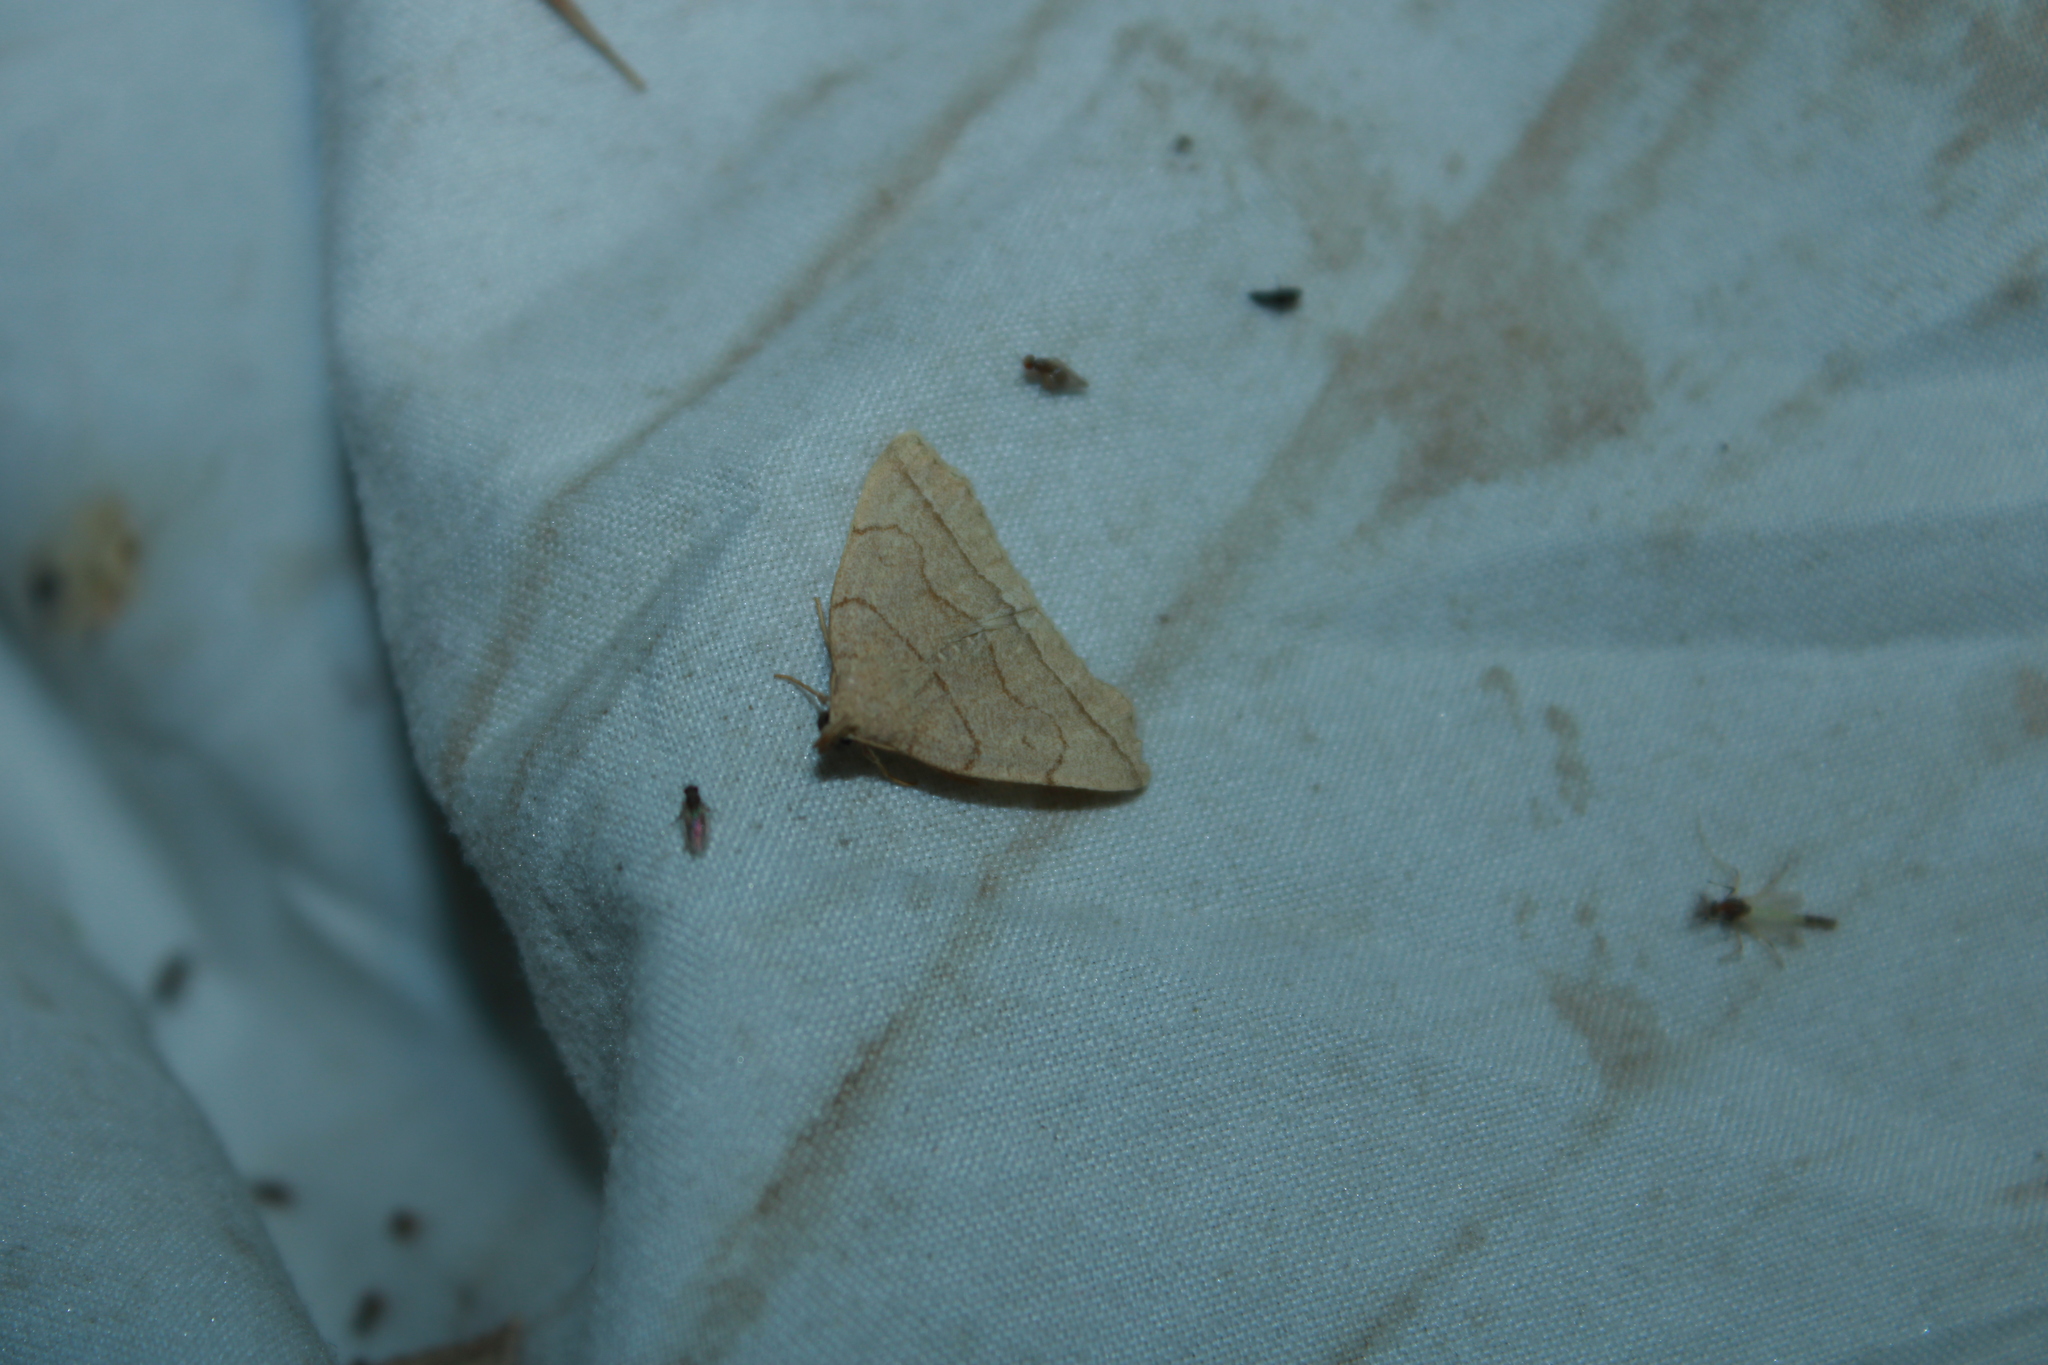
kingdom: Animalia
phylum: Arthropoda
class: Insecta
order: Lepidoptera
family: Erebidae
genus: Zanclognatha
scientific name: Zanclognatha cruralis
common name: Early fan-foot
